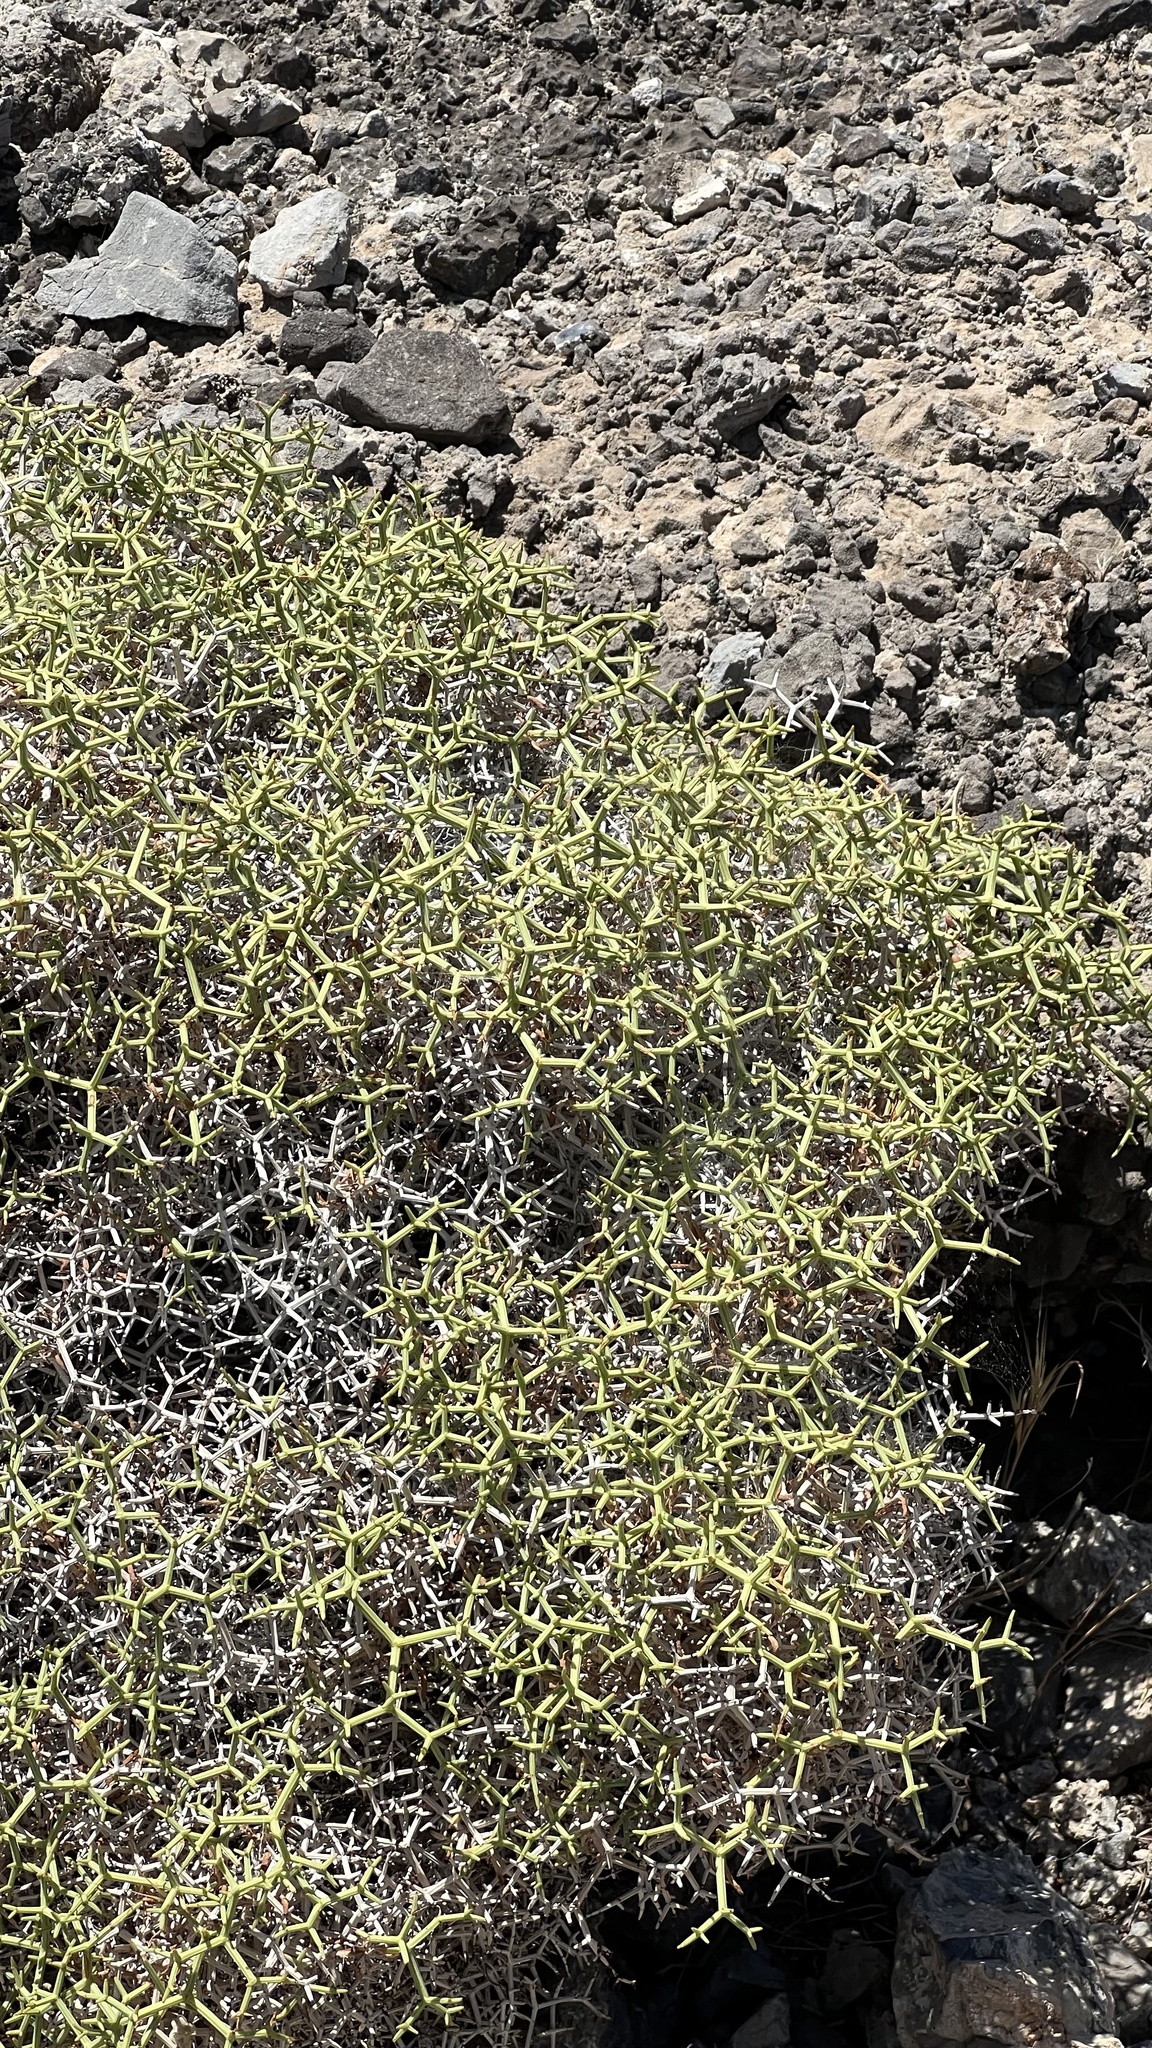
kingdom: Plantae
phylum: Tracheophyta
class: Magnoliopsida
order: Caryophyllales
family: Polygonaceae
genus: Eriogonum
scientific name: Eriogonum heermannii
